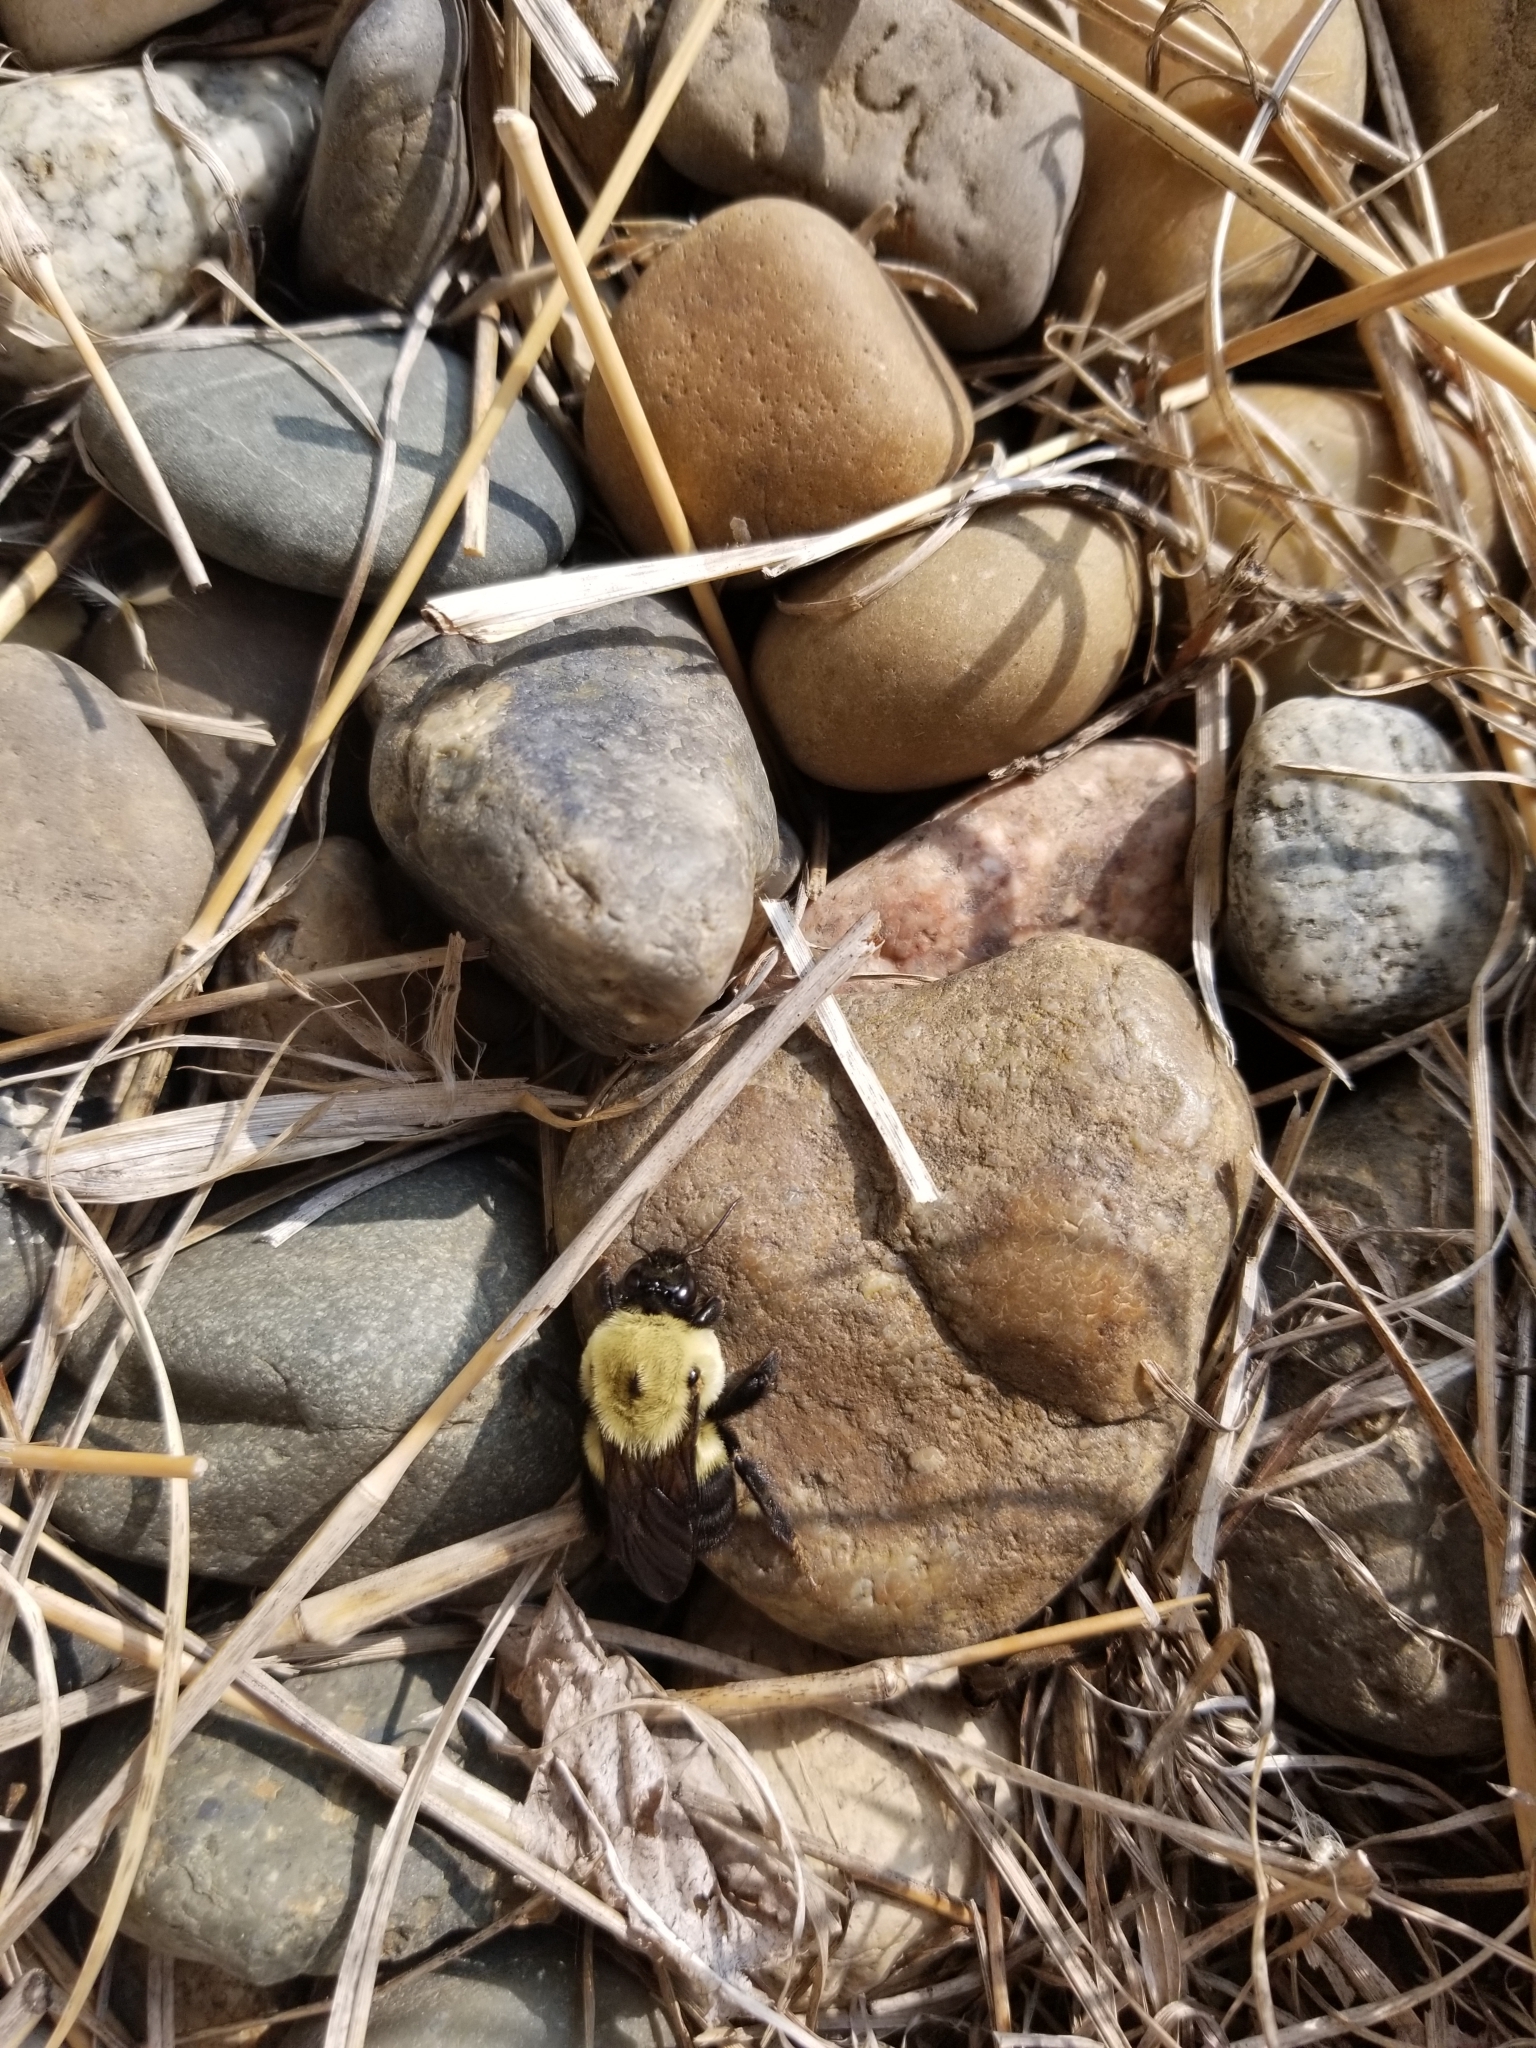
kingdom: Animalia
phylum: Arthropoda
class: Insecta
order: Hymenoptera
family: Apidae
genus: Bombus
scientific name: Bombus griseocollis
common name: Brown-belted bumble bee
